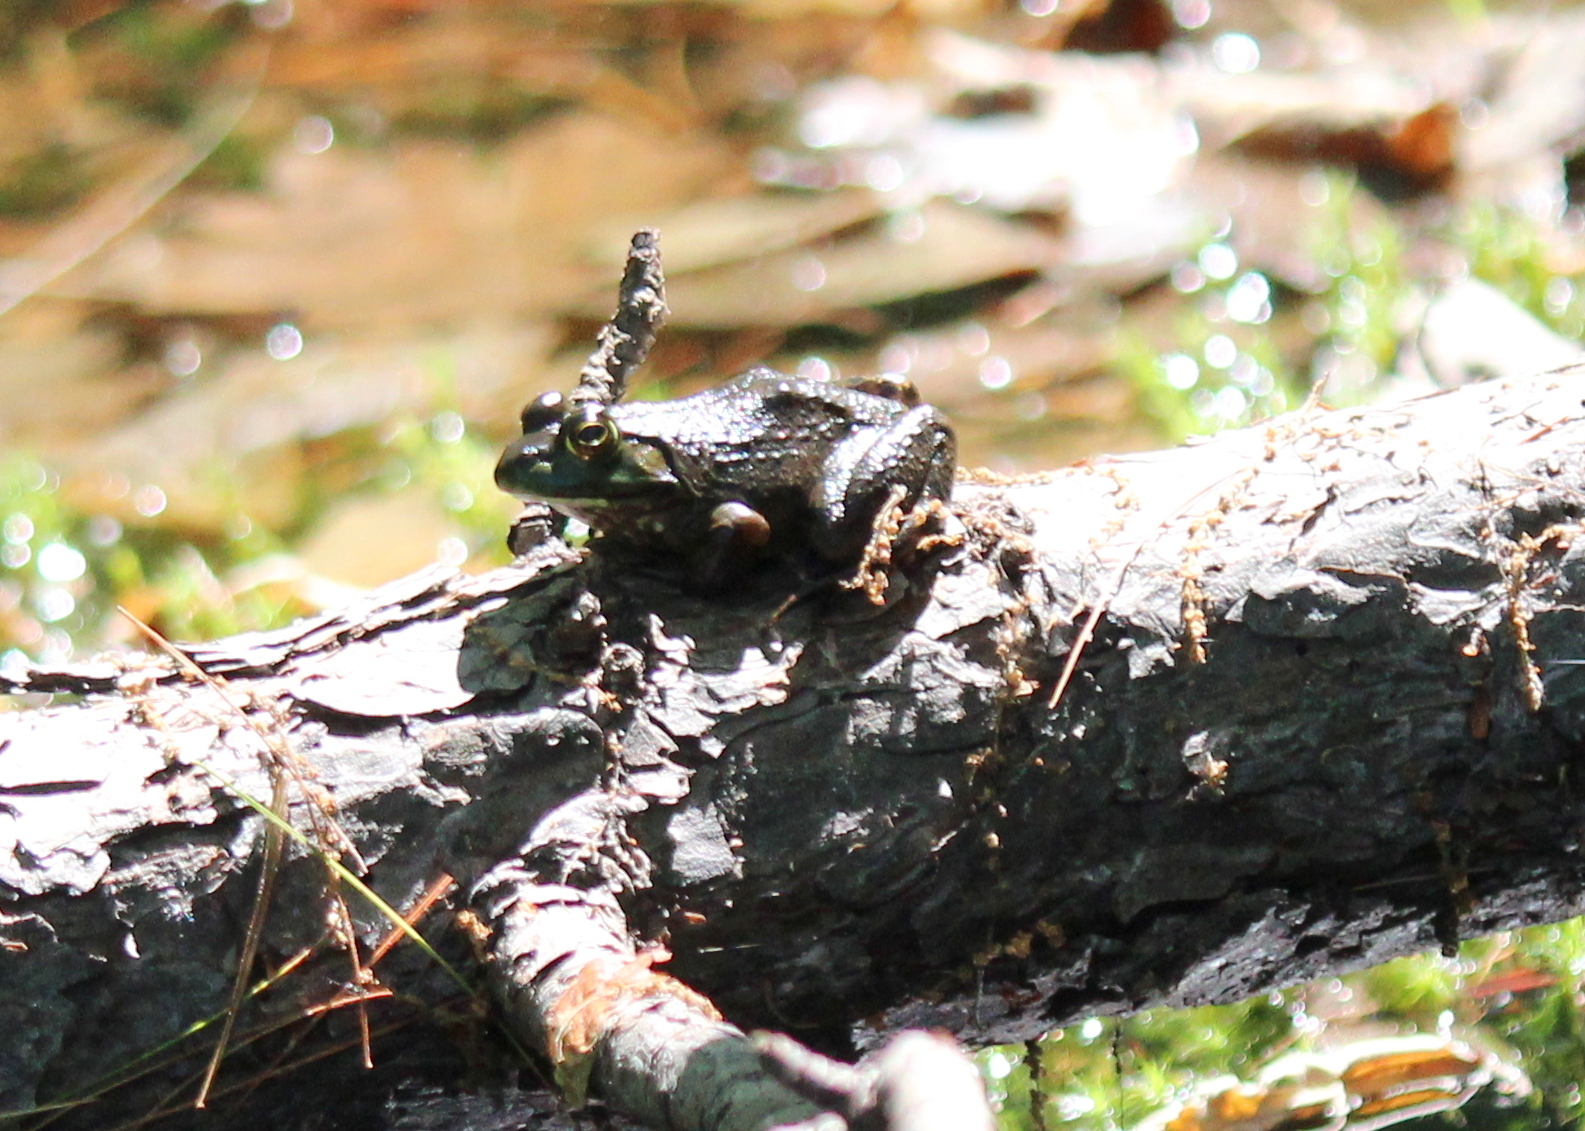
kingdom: Animalia
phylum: Chordata
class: Amphibia
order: Anura
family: Ranidae
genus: Lithobates
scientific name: Lithobates catesbeianus
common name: American bullfrog
